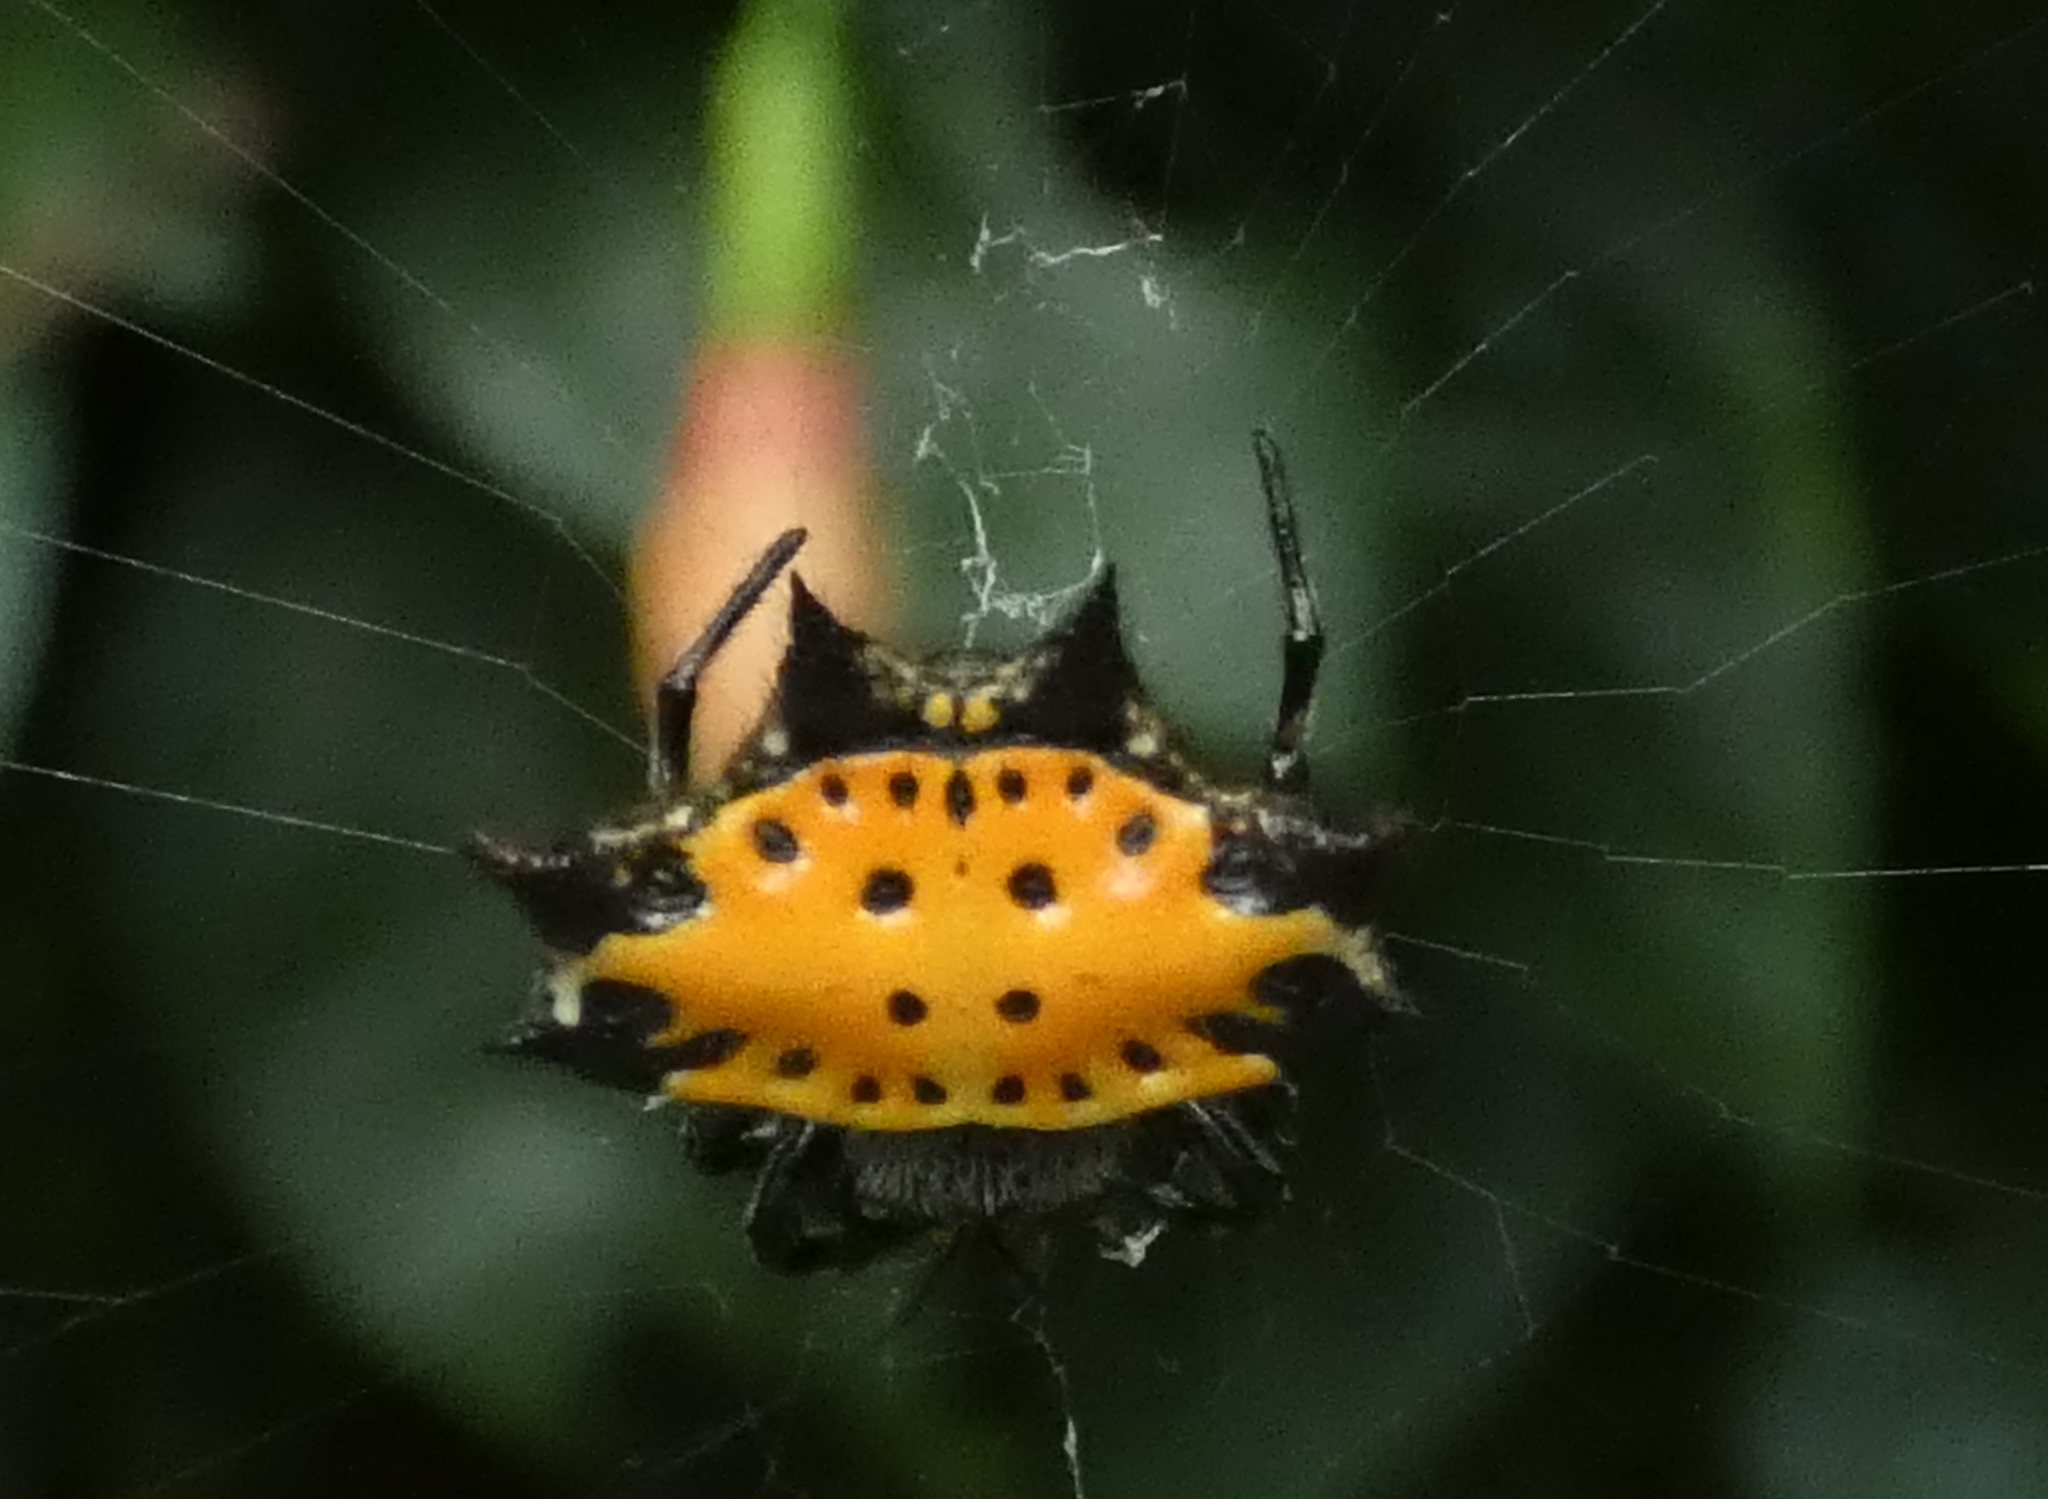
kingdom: Animalia
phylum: Arthropoda
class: Arachnida
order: Araneae
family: Araneidae
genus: Gasteracantha
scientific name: Gasteracantha cancriformis
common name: Orb weavers
